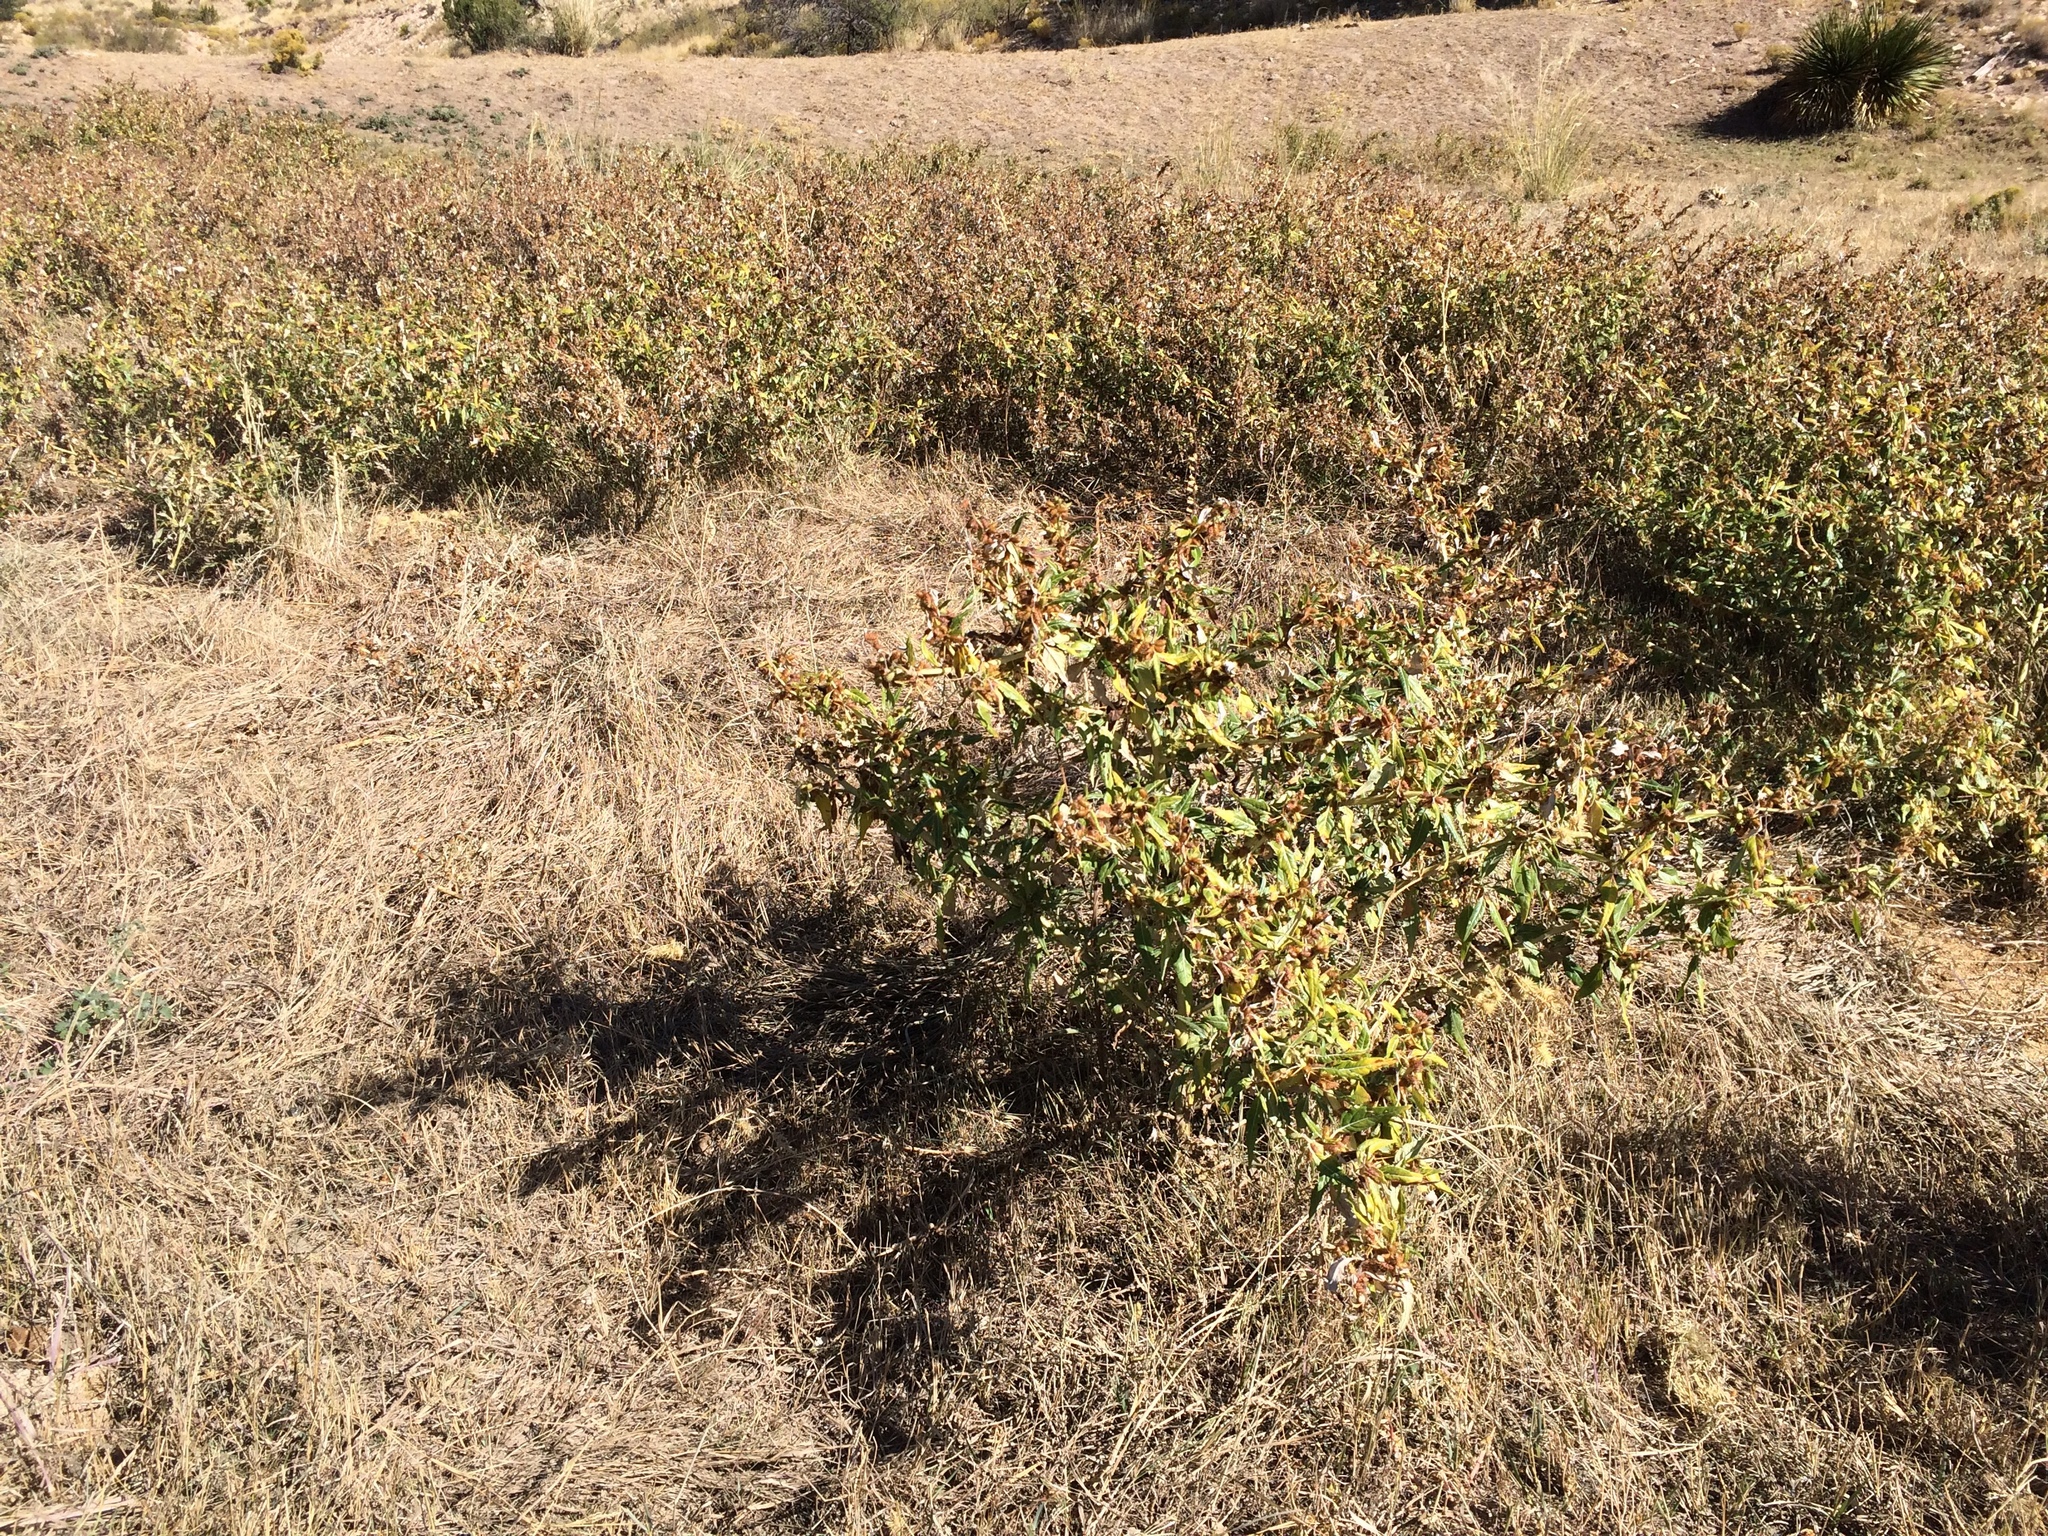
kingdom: Plantae
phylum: Tracheophyta
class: Magnoliopsida
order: Asterales
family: Asteraceae
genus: Xanthium
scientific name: Xanthium spinosum
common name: Spiny cocklebur
